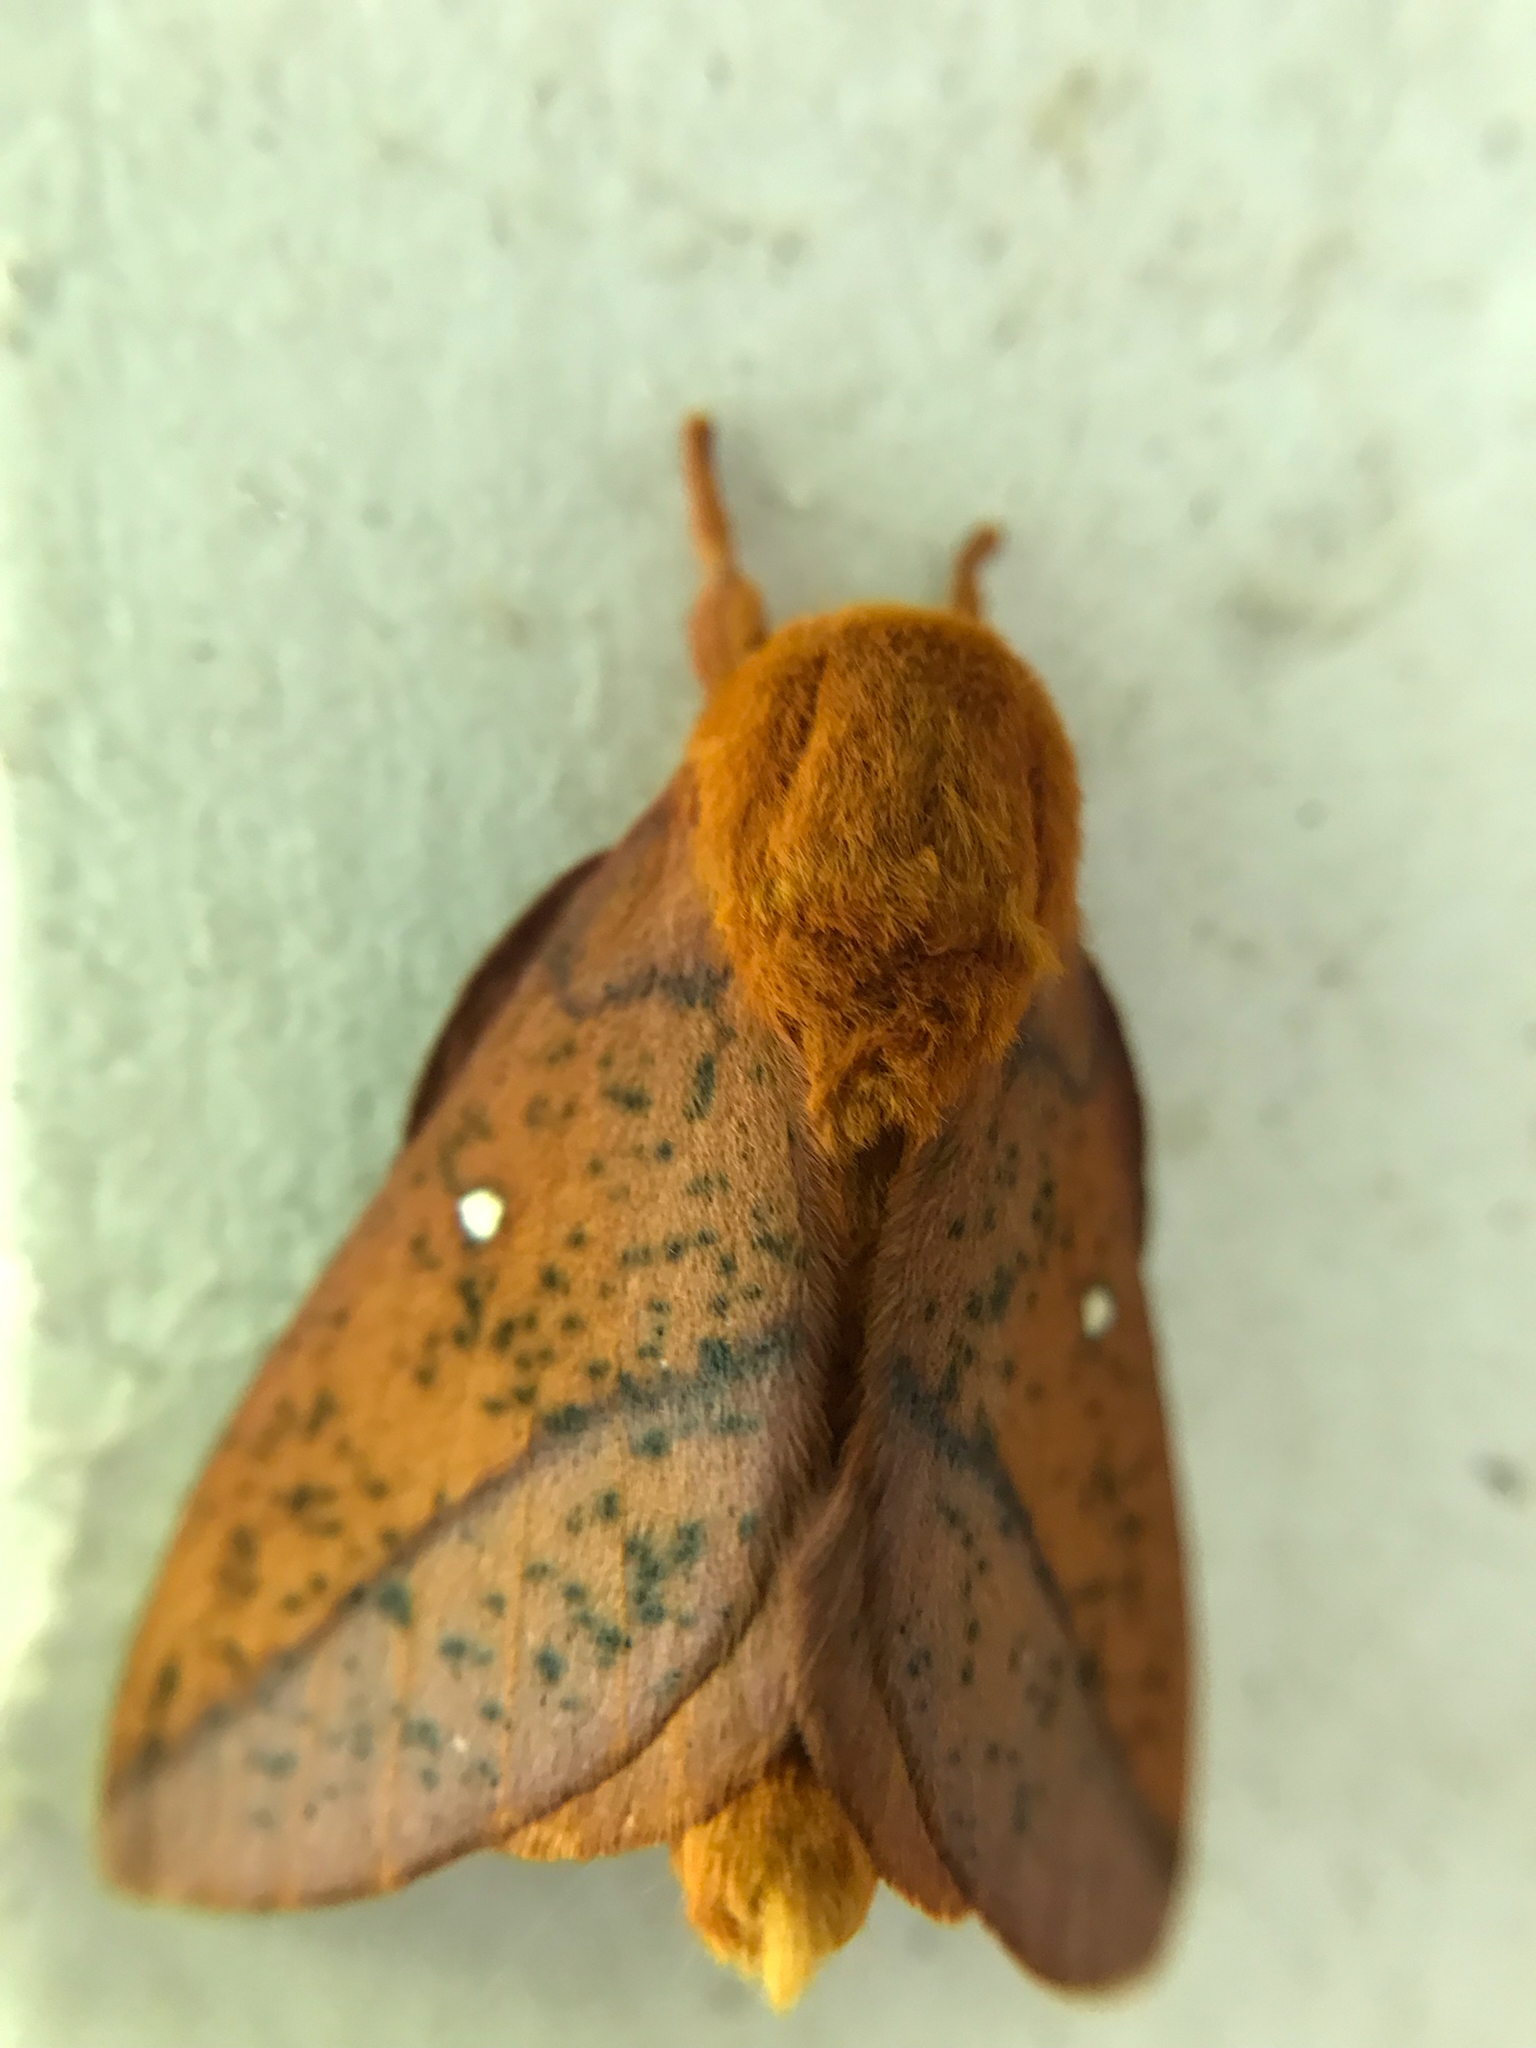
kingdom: Animalia
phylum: Arthropoda
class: Insecta
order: Lepidoptera
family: Saturniidae
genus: Anisota
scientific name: Anisota stigma
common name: Spiny oakworm moth
